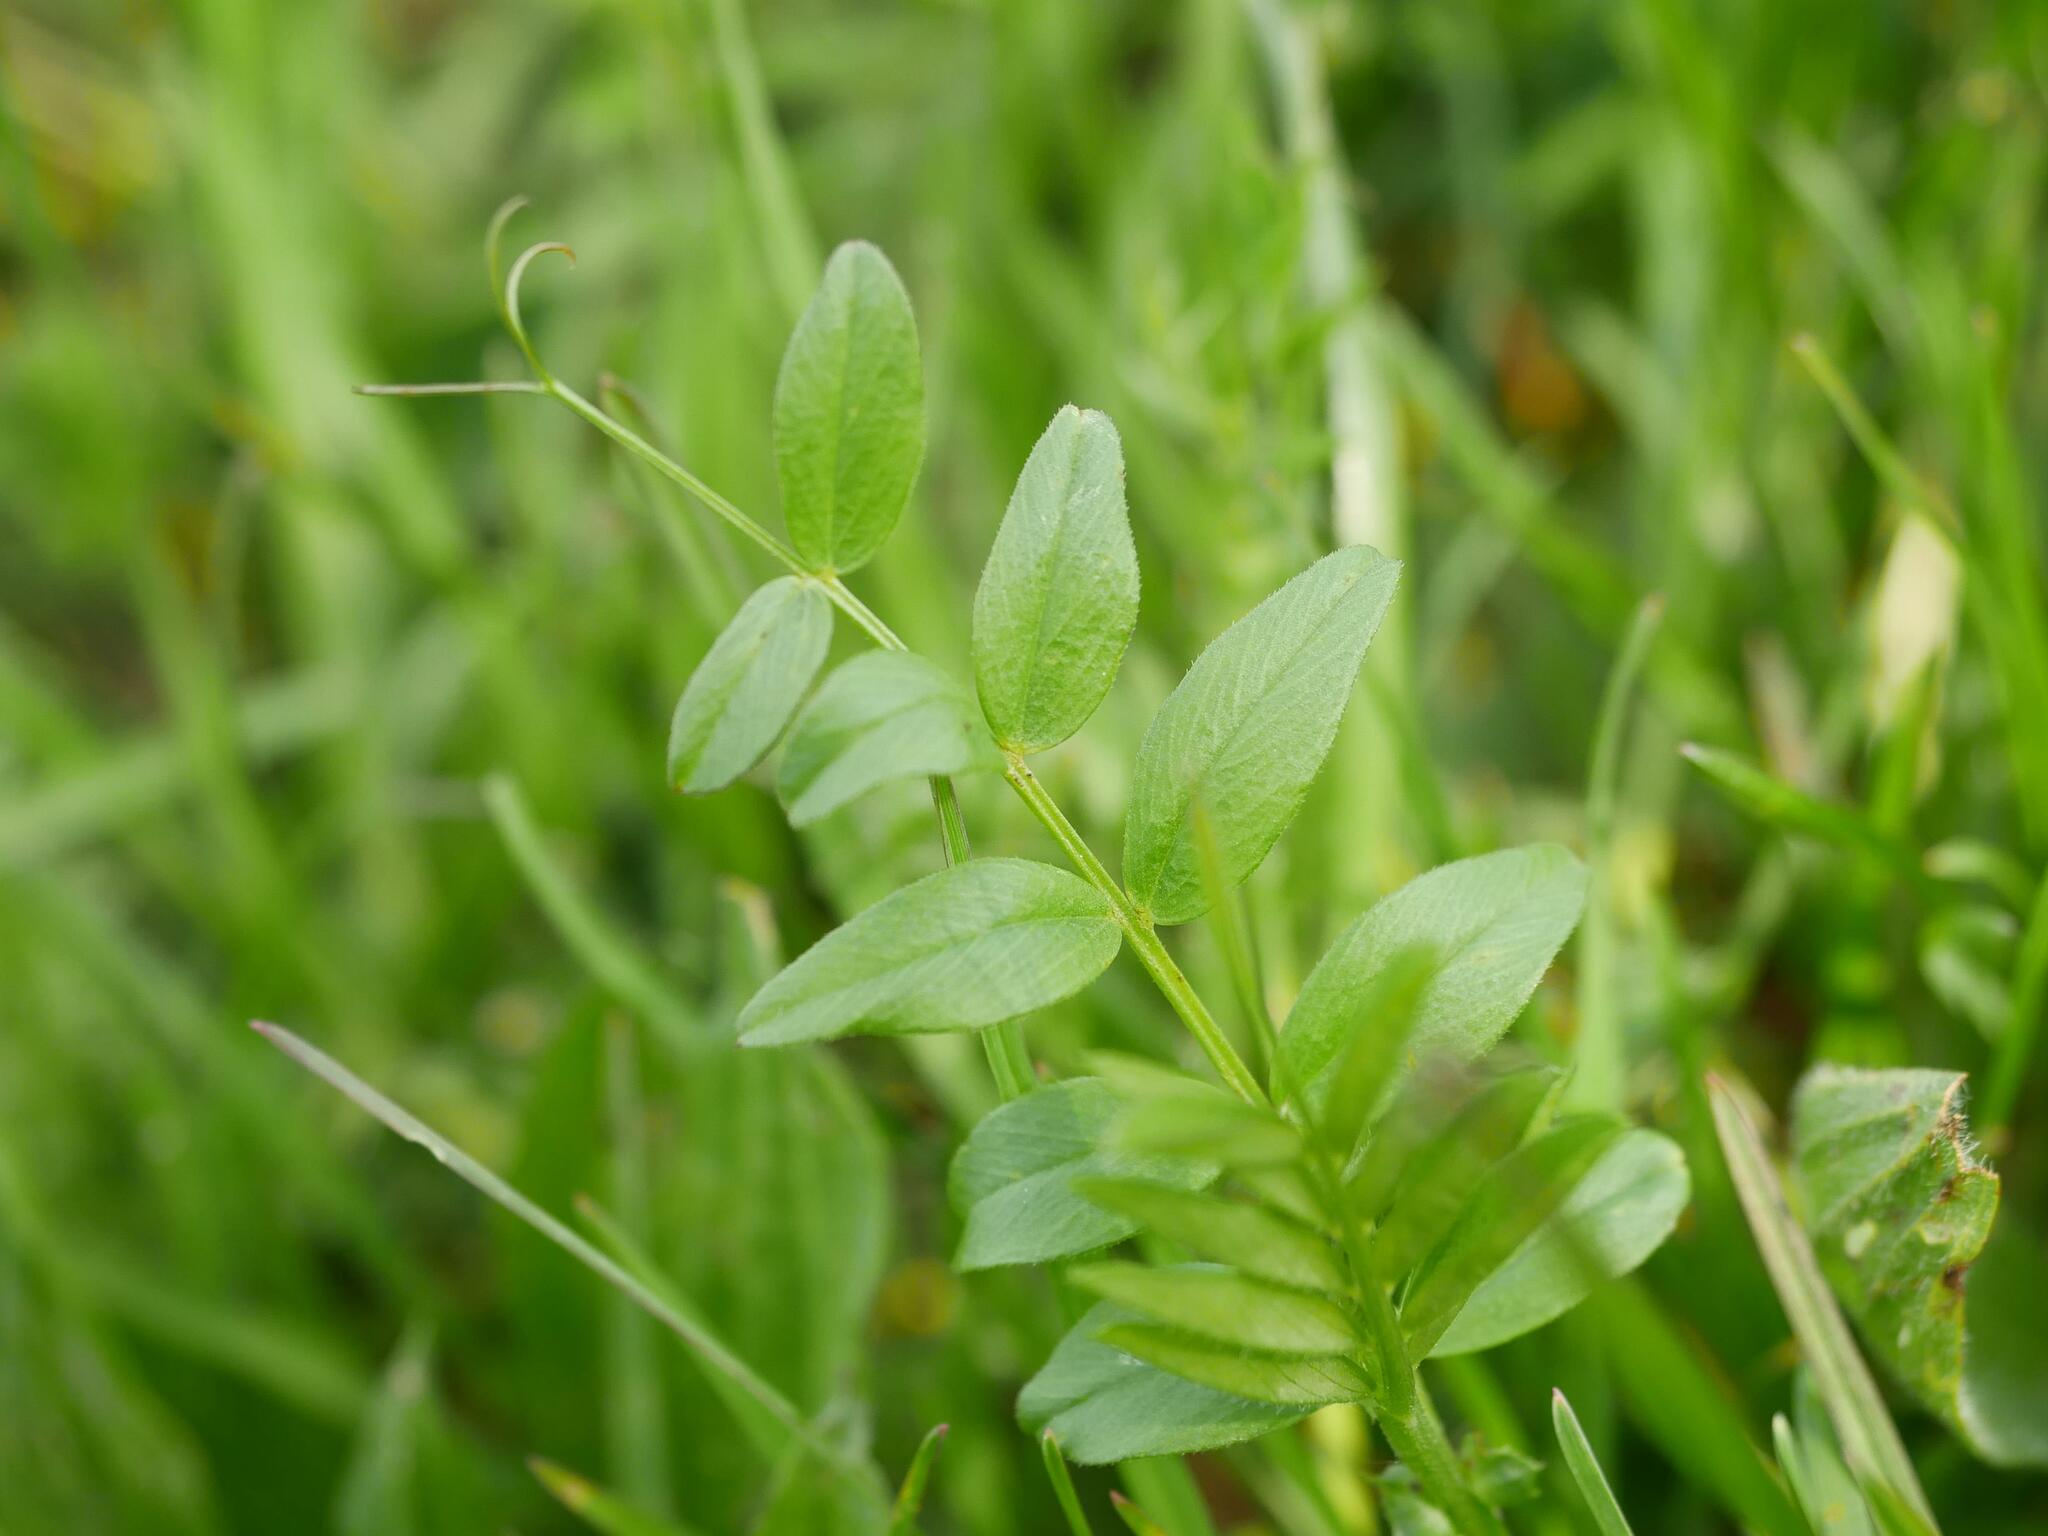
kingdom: Plantae
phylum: Tracheophyta
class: Magnoliopsida
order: Fabales
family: Fabaceae
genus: Vicia
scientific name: Vicia sepium
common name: Bush vetch
